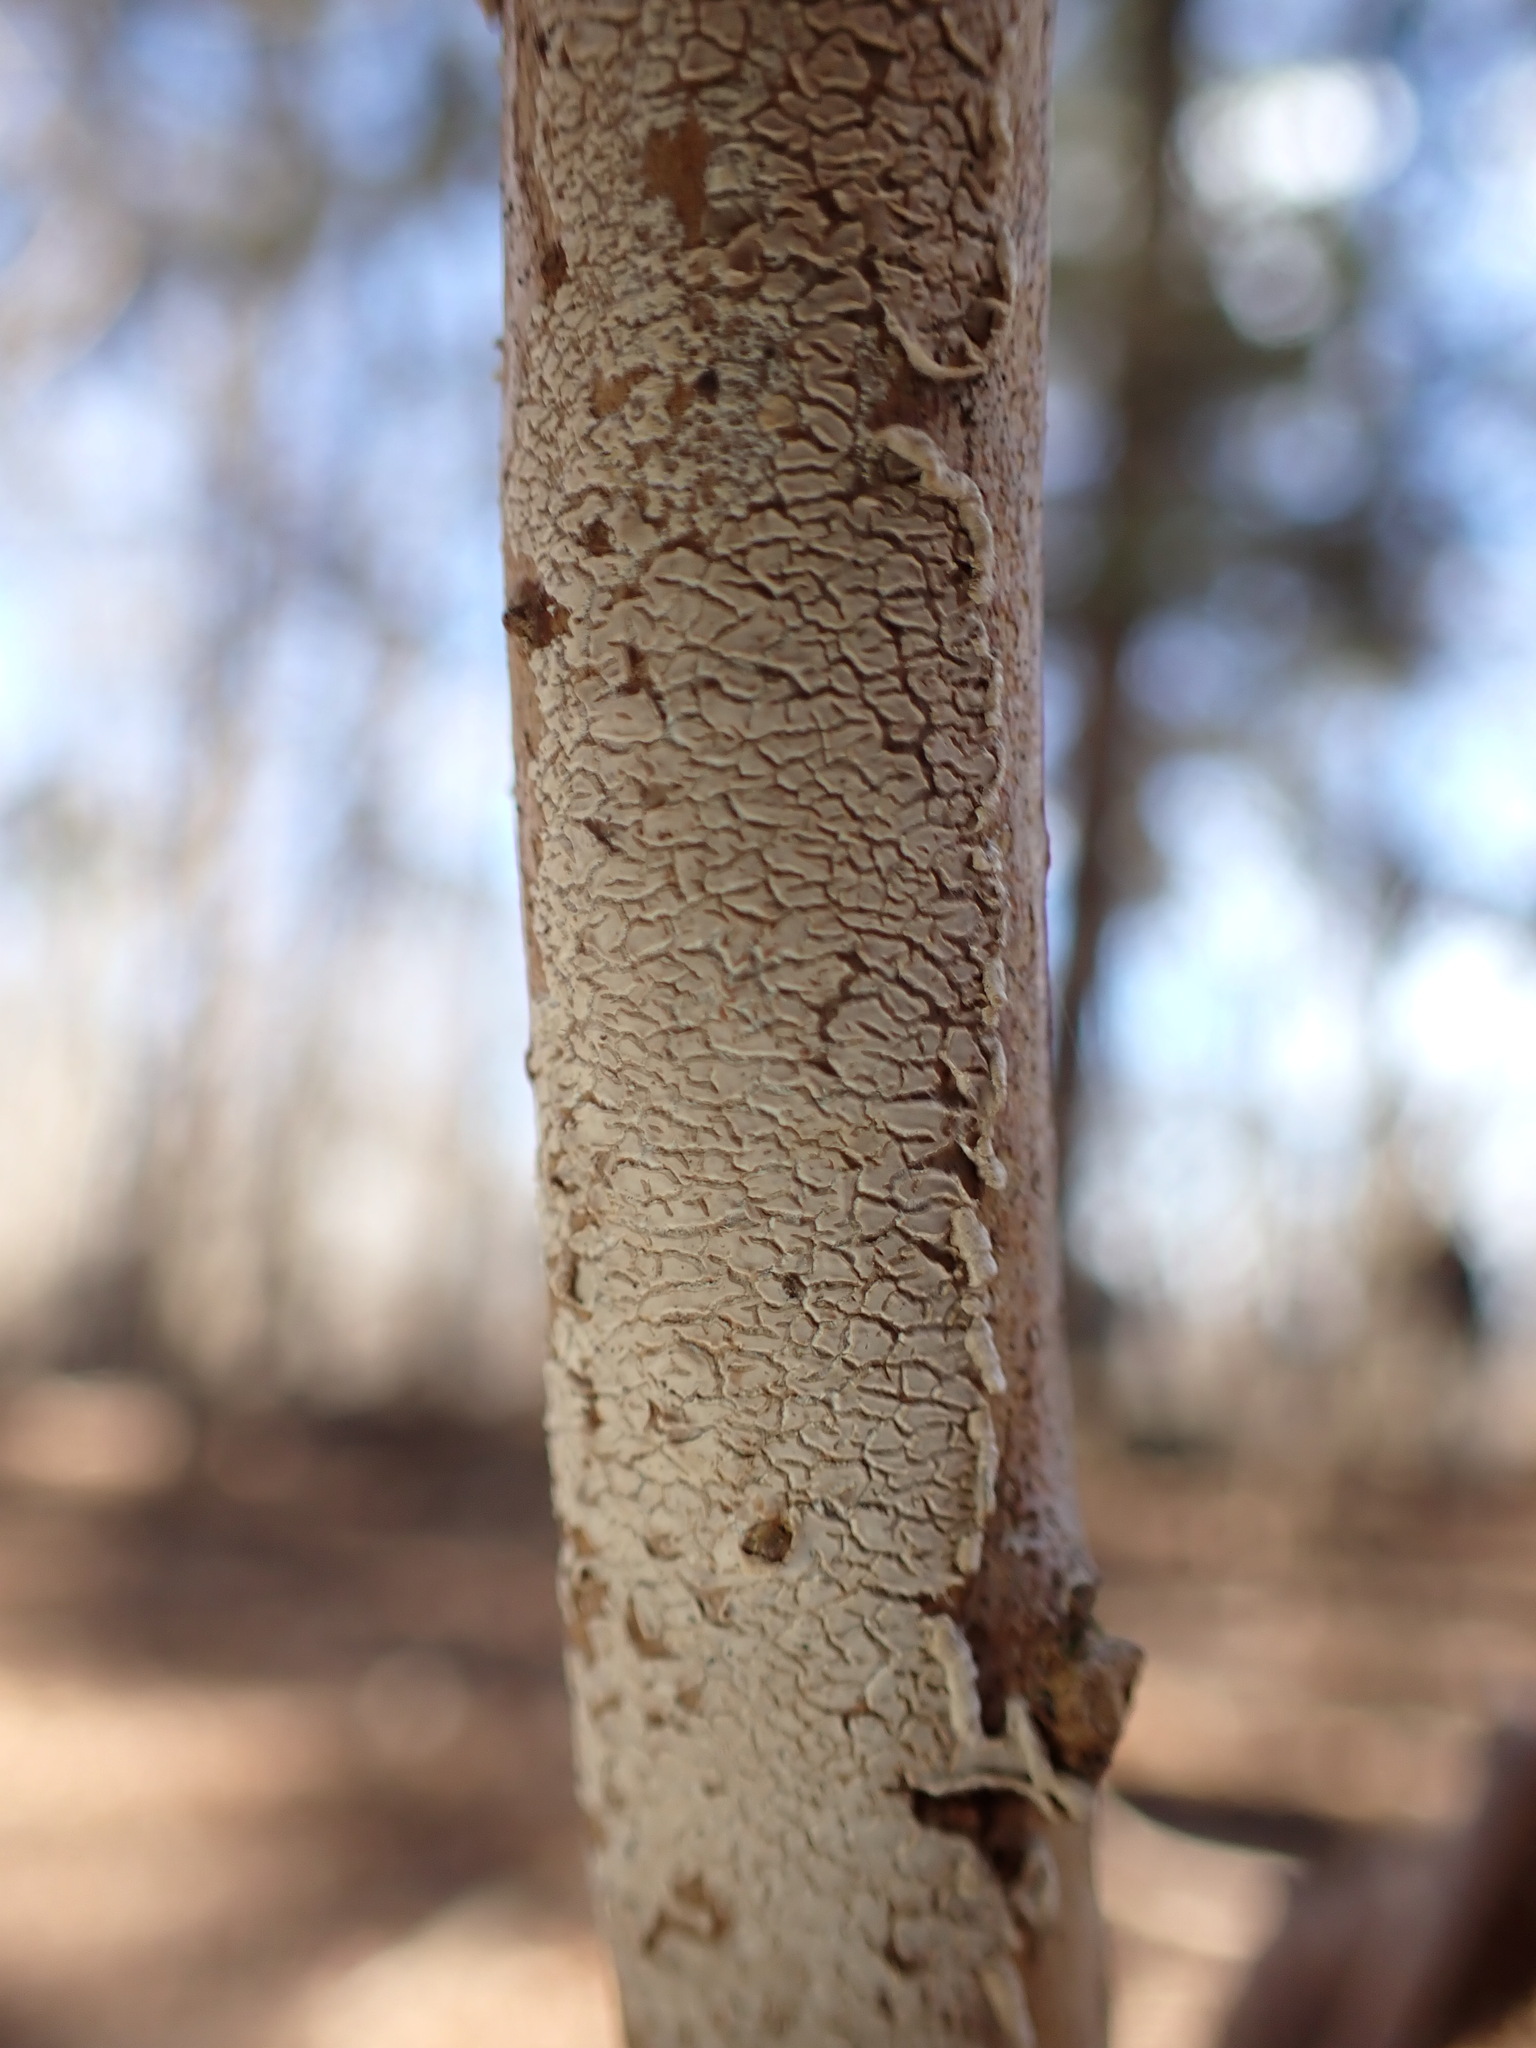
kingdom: Fungi
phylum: Basidiomycota
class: Agaricomycetes
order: Russulales
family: Peniophoraceae
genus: Peniophora
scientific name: Peniophora cinerea
